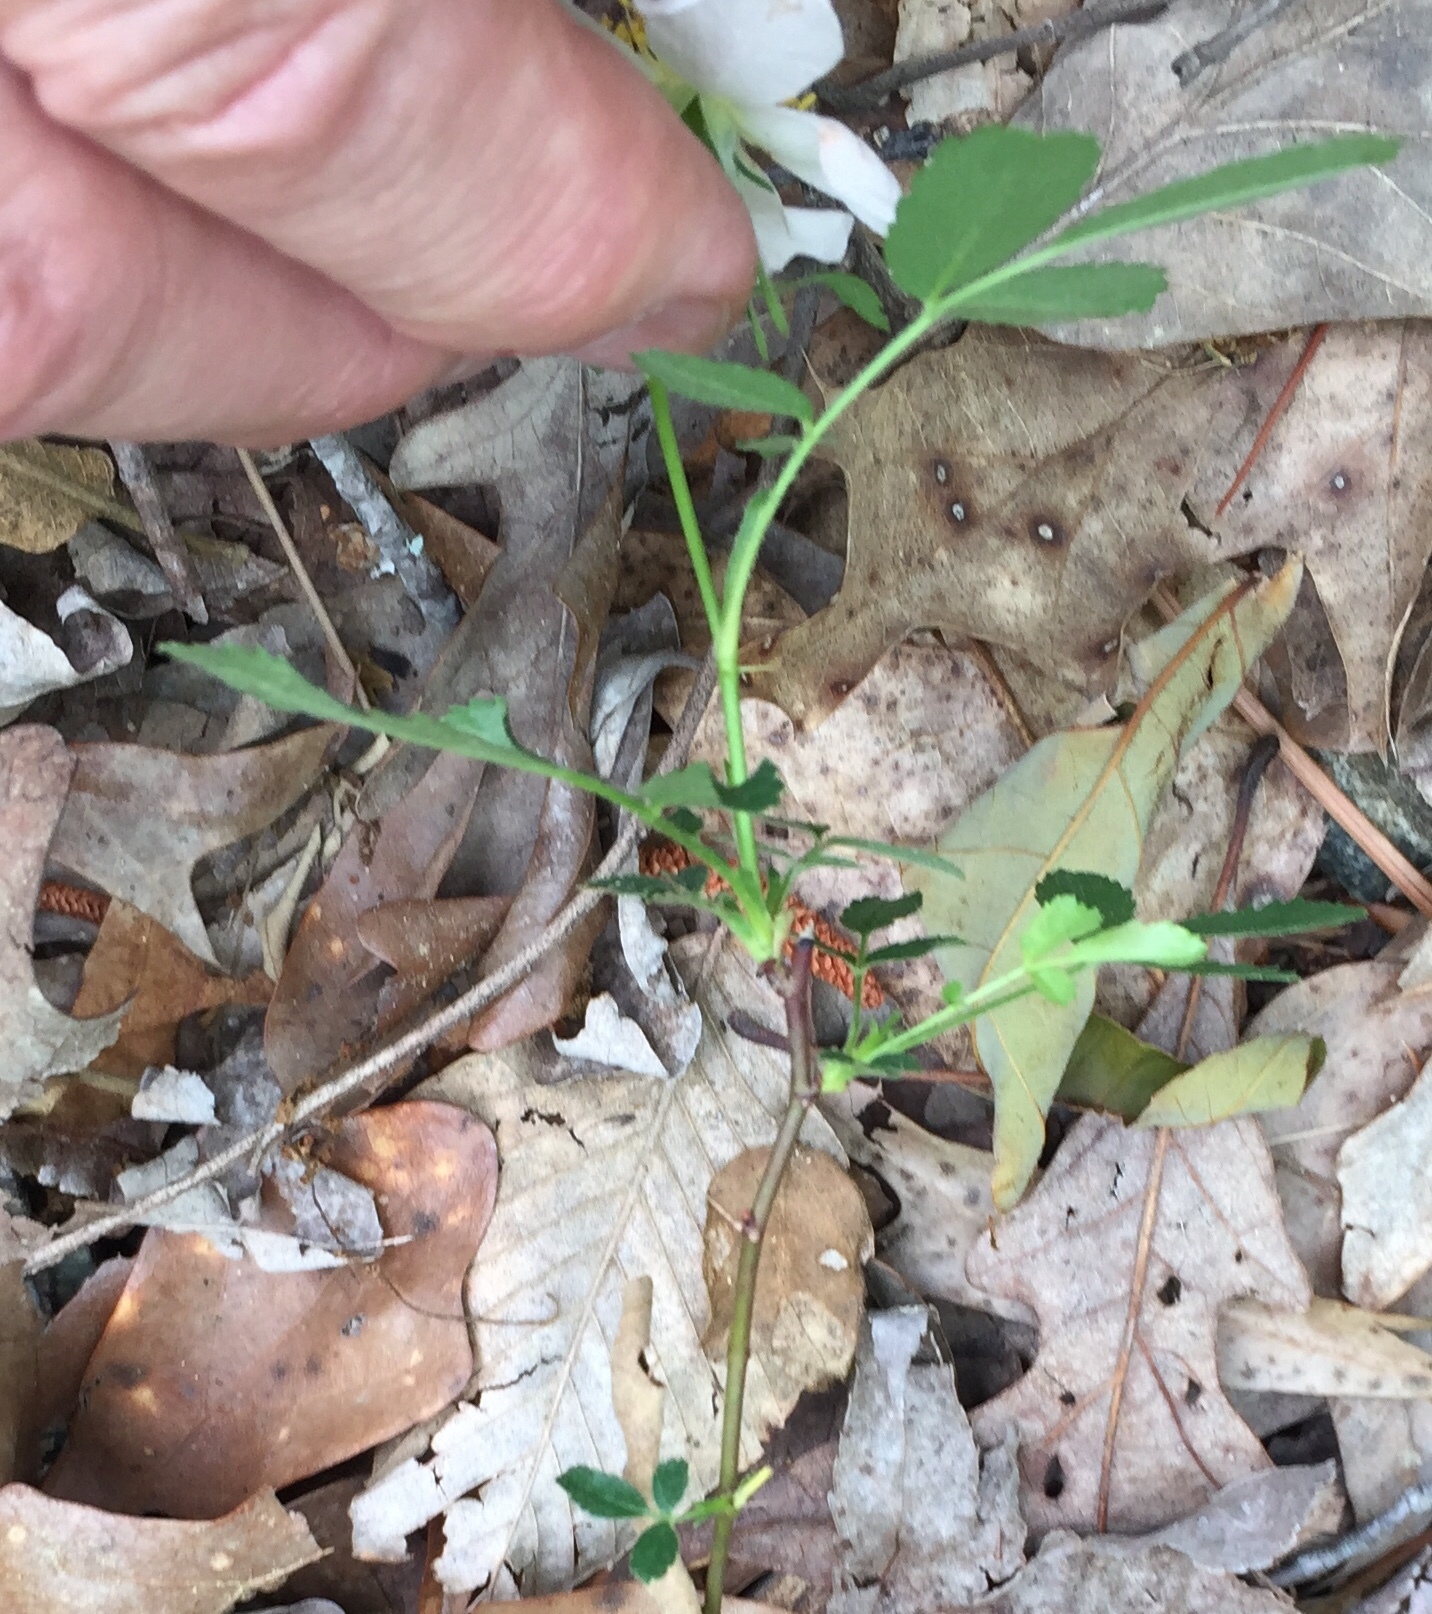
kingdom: Plantae
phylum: Tracheophyta
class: Magnoliopsida
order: Rosales
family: Rosaceae
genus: Rosa
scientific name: Rosa carolina
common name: Pasture rose
